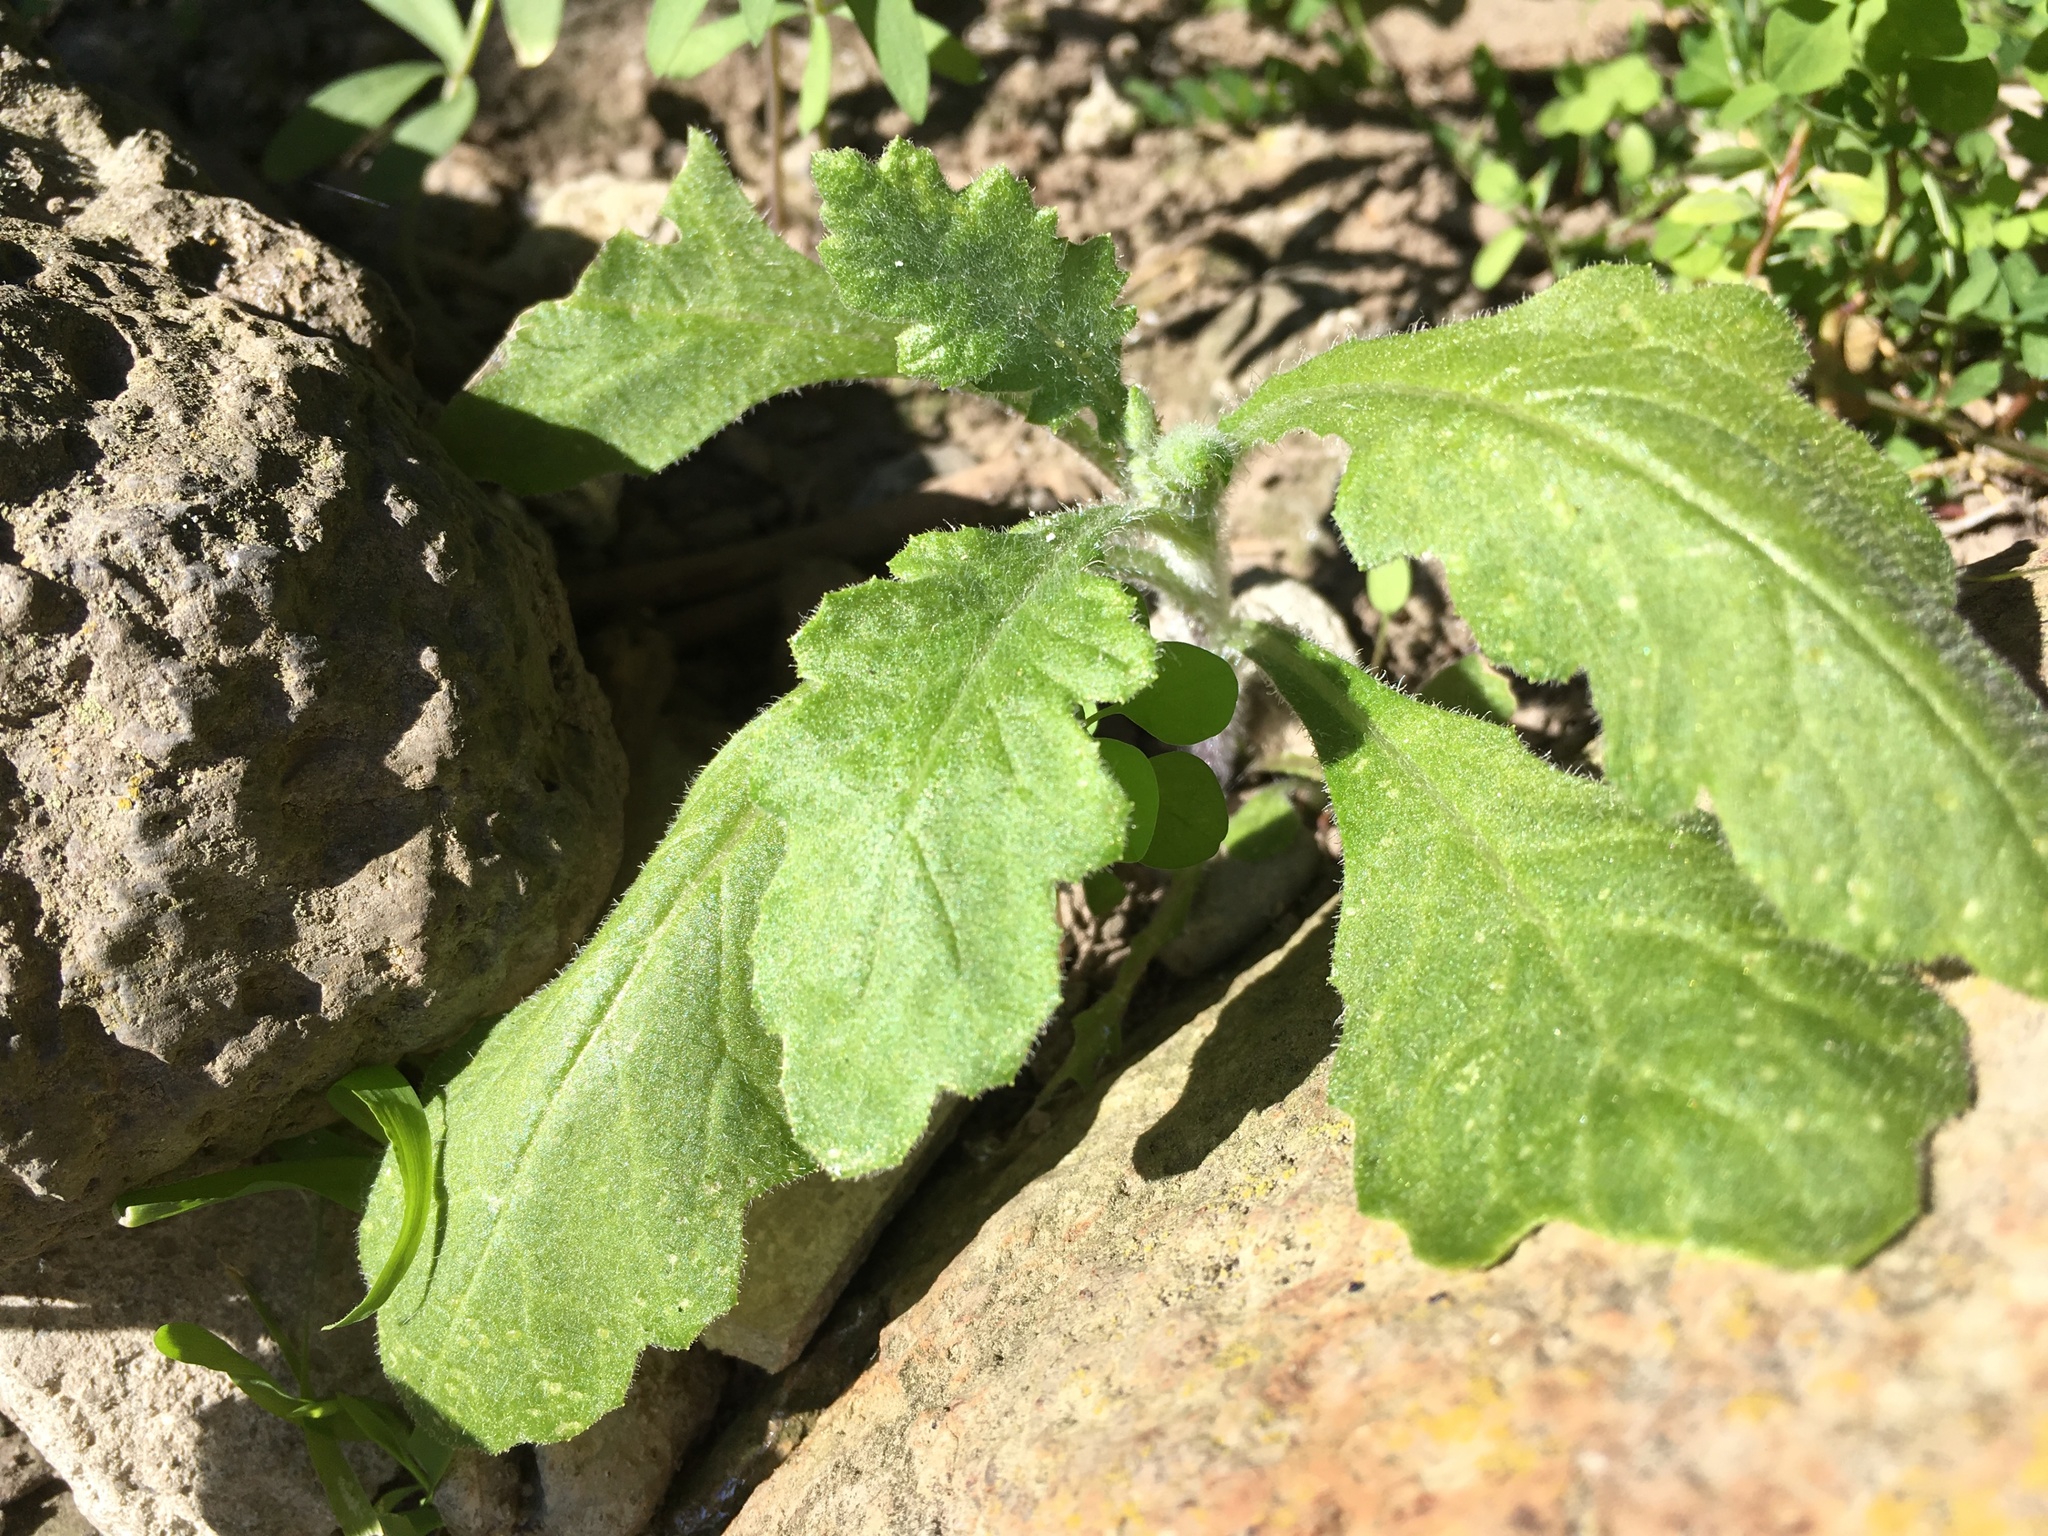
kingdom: Plantae
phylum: Tracheophyta
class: Magnoliopsida
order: Asterales
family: Asteraceae
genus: Senecio
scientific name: Senecio glomeratus
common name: Cutleaf burnweed
